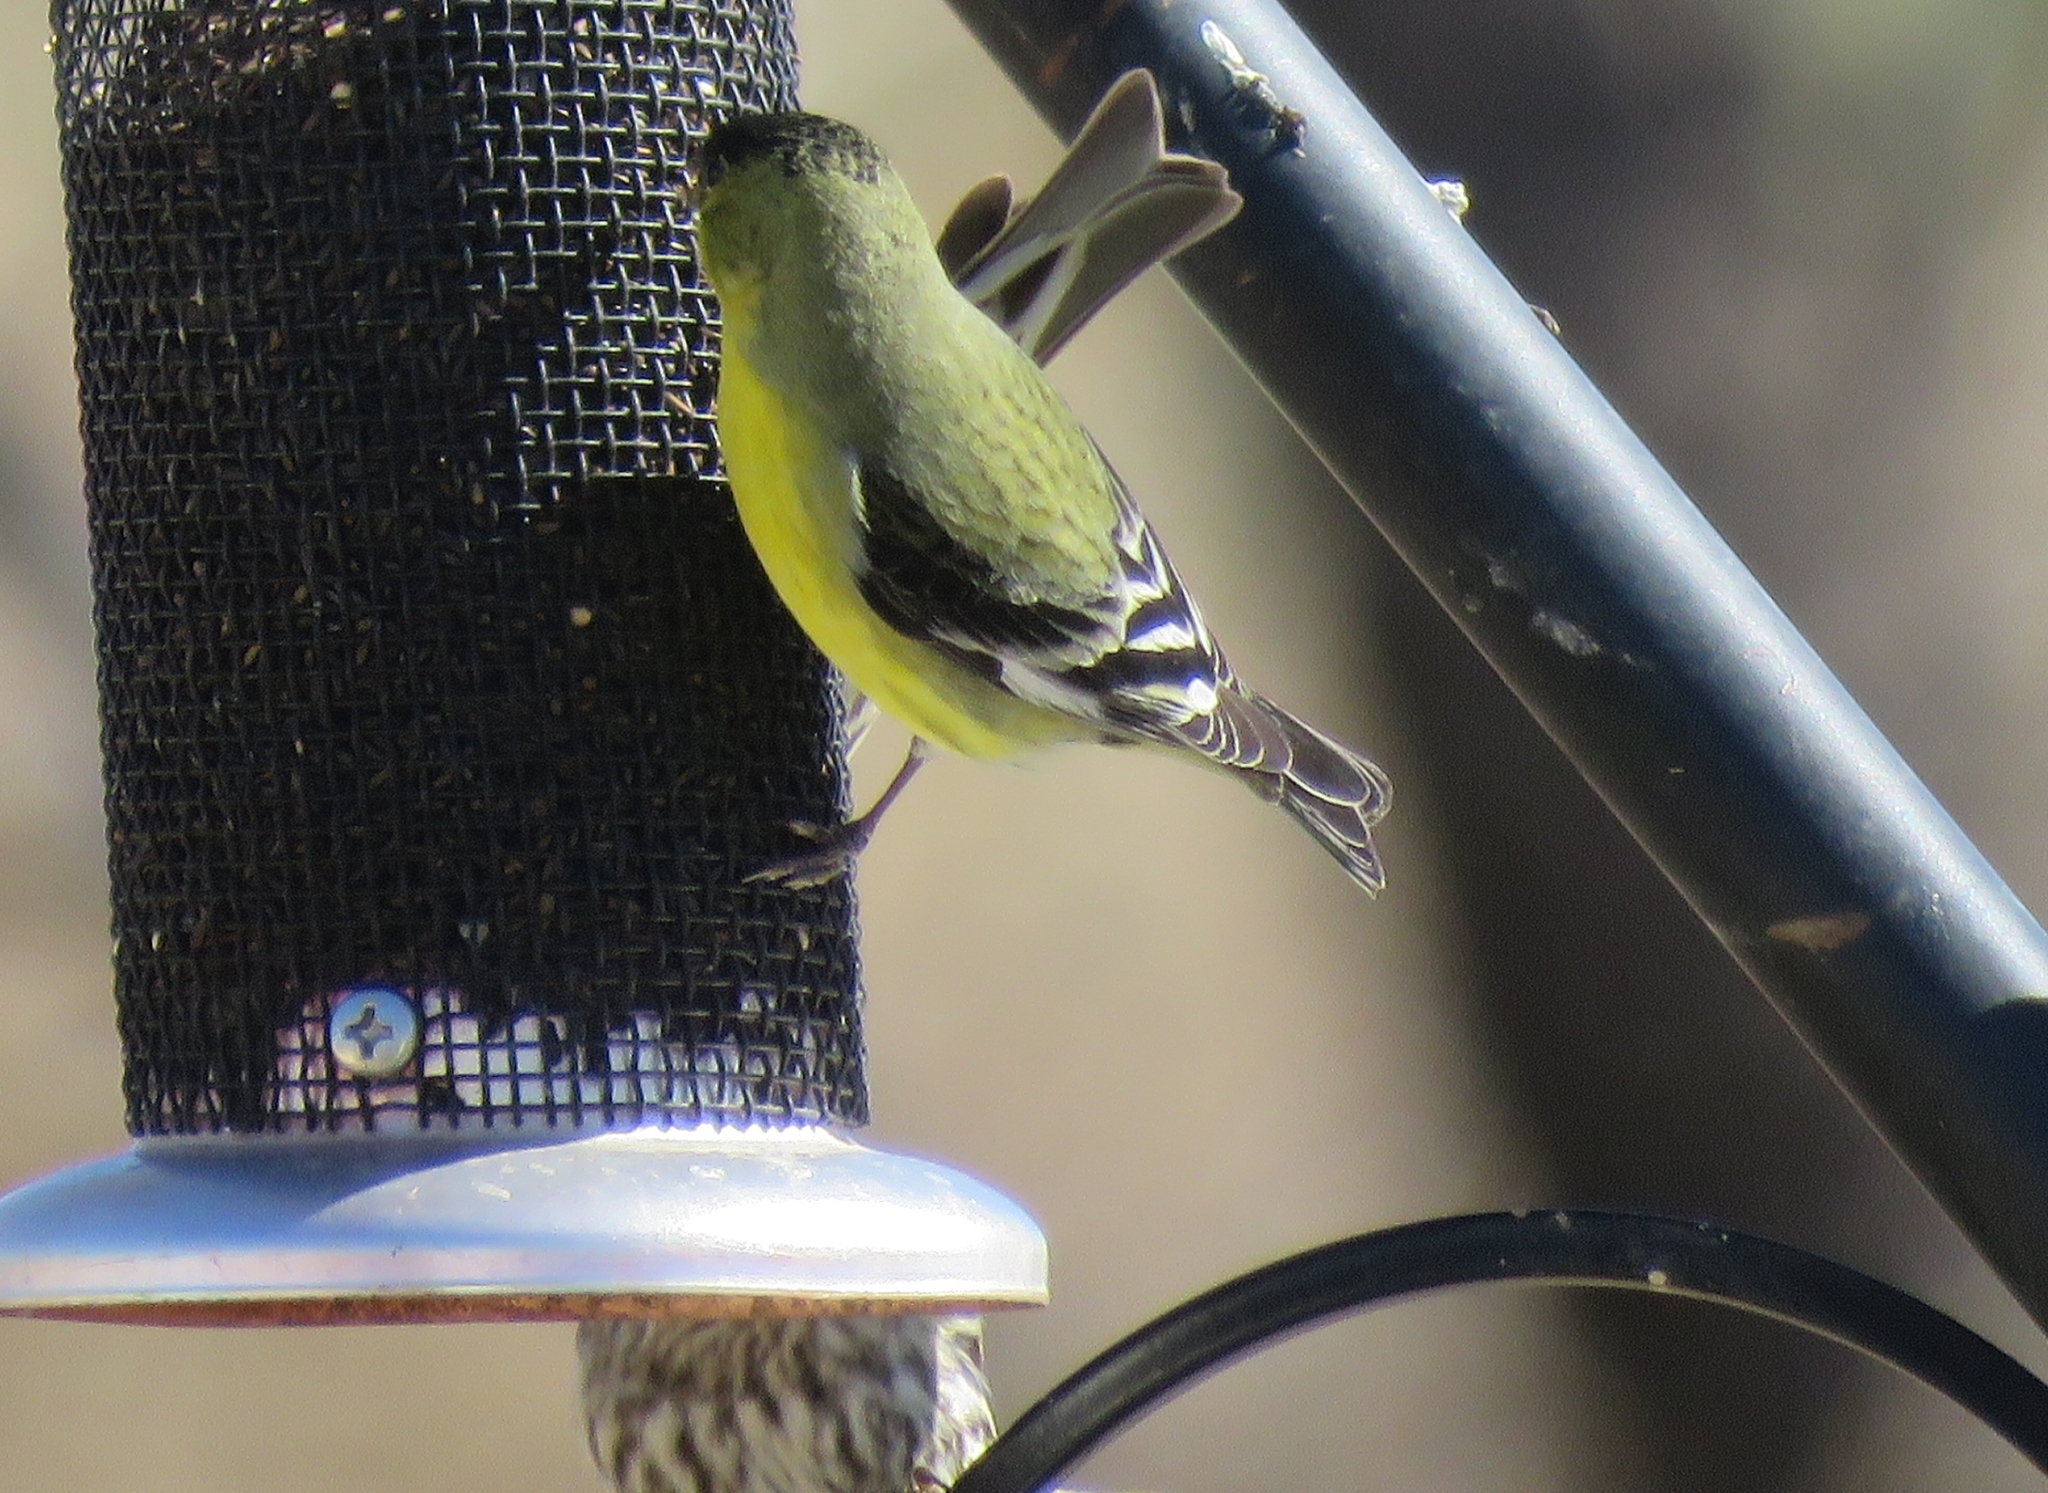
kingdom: Animalia
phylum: Chordata
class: Aves
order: Passeriformes
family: Fringillidae
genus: Spinus
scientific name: Spinus psaltria
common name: Lesser goldfinch
